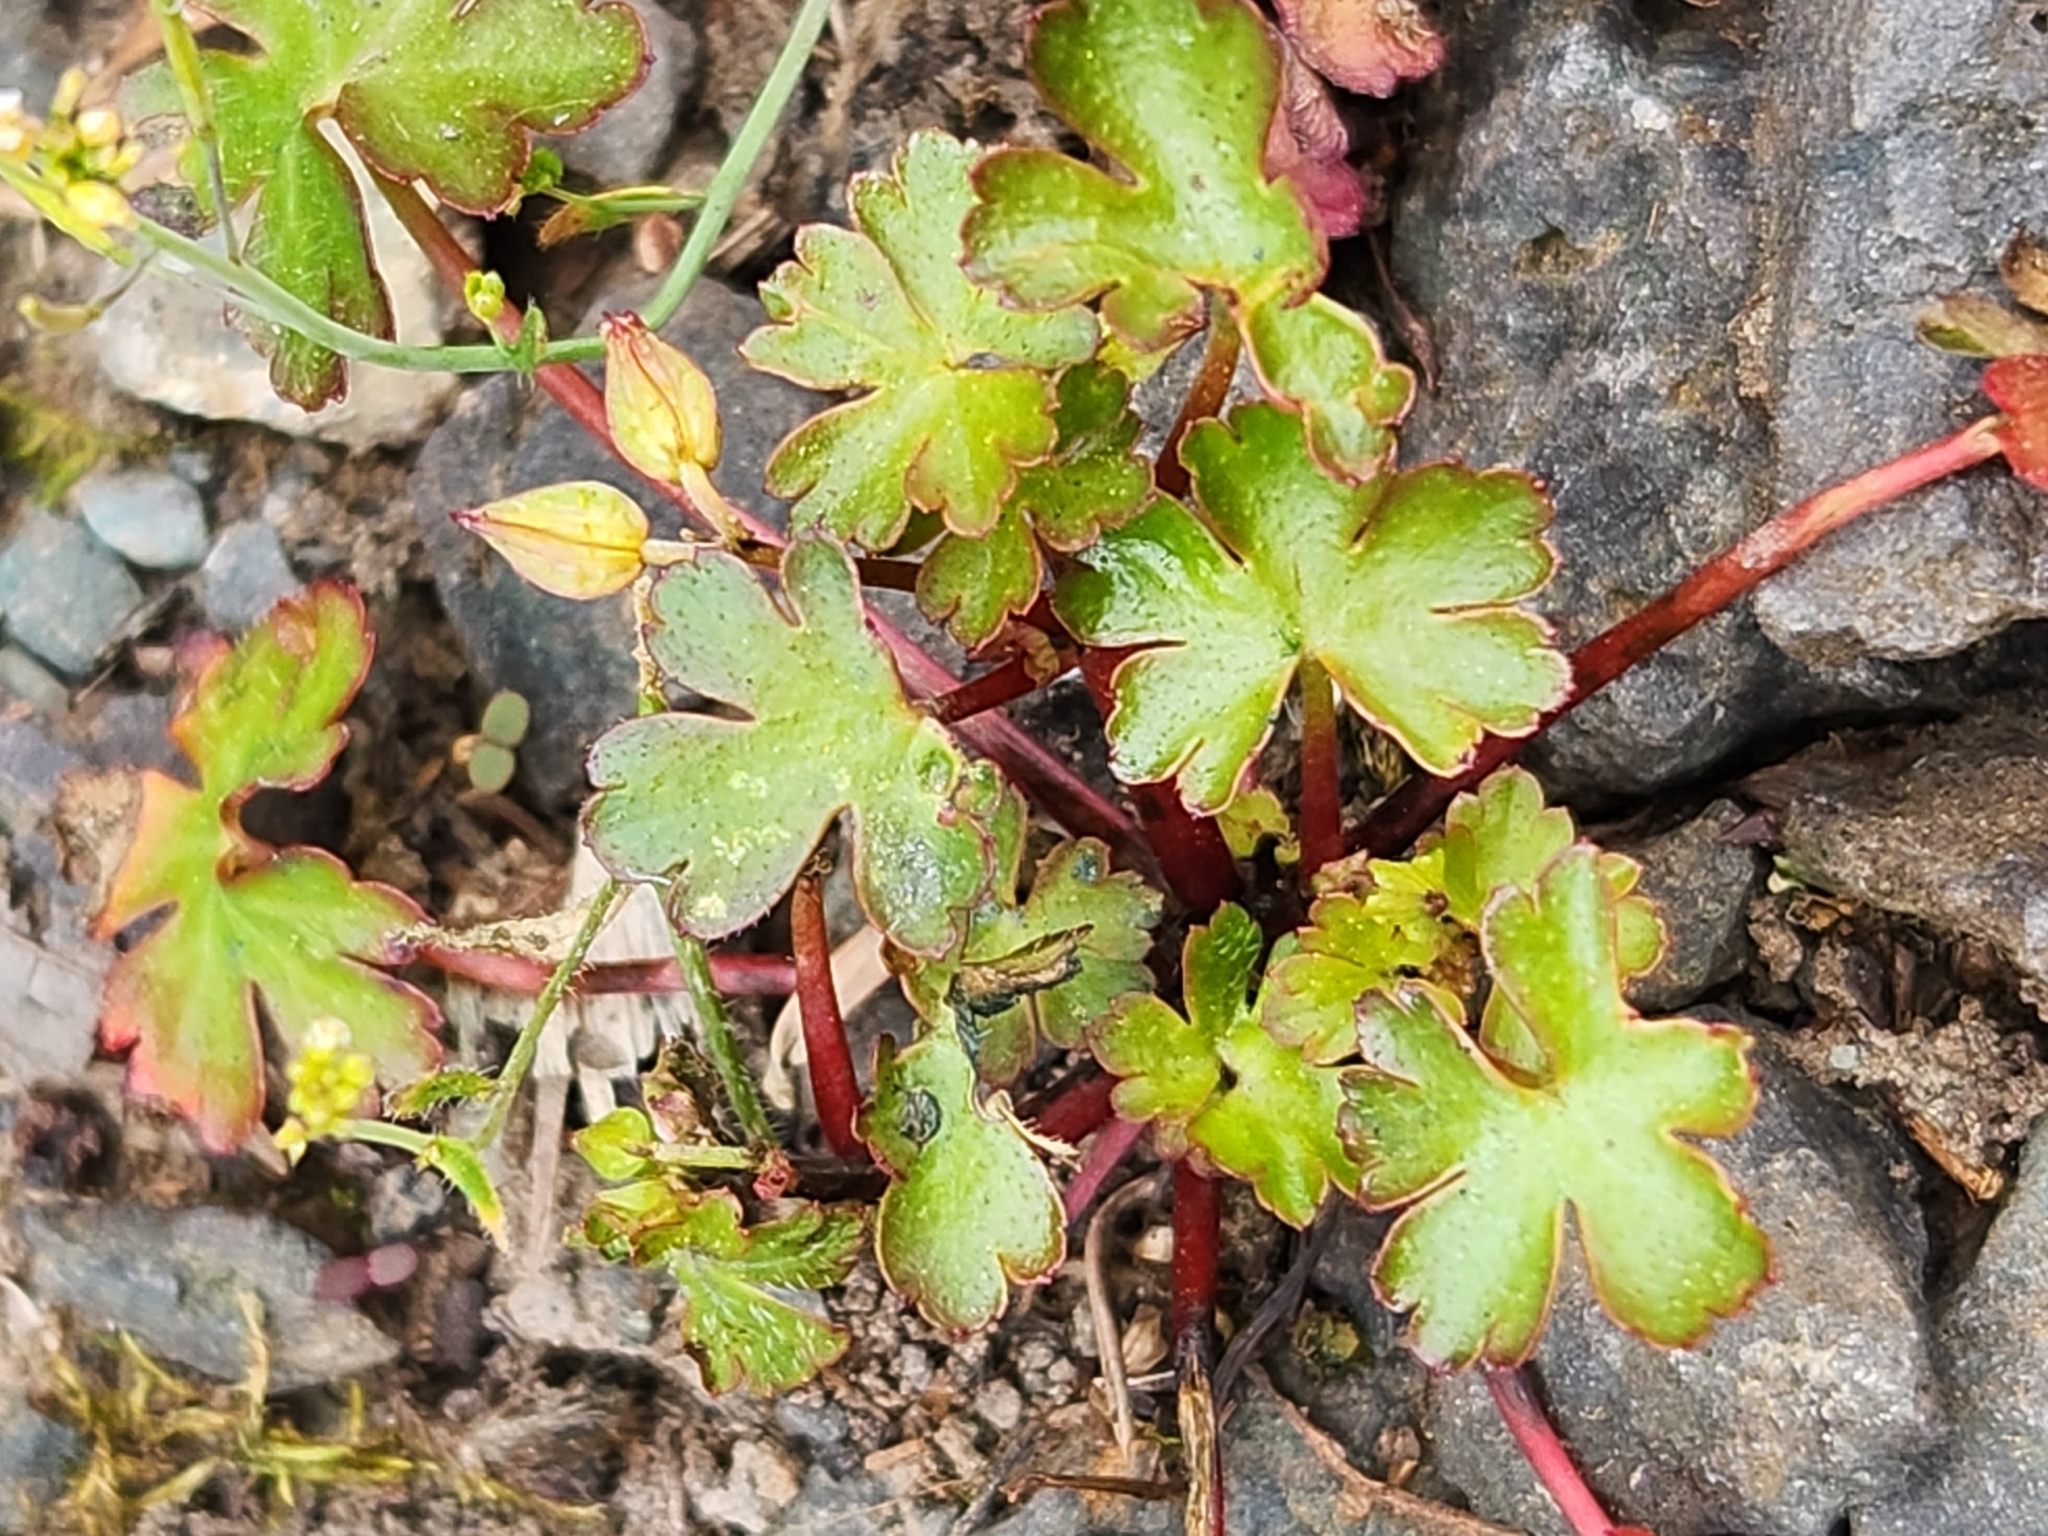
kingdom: Plantae
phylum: Tracheophyta
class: Magnoliopsida
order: Geraniales
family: Geraniaceae
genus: Geranium
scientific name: Geranium lucidum
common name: Shining crane's-bill
